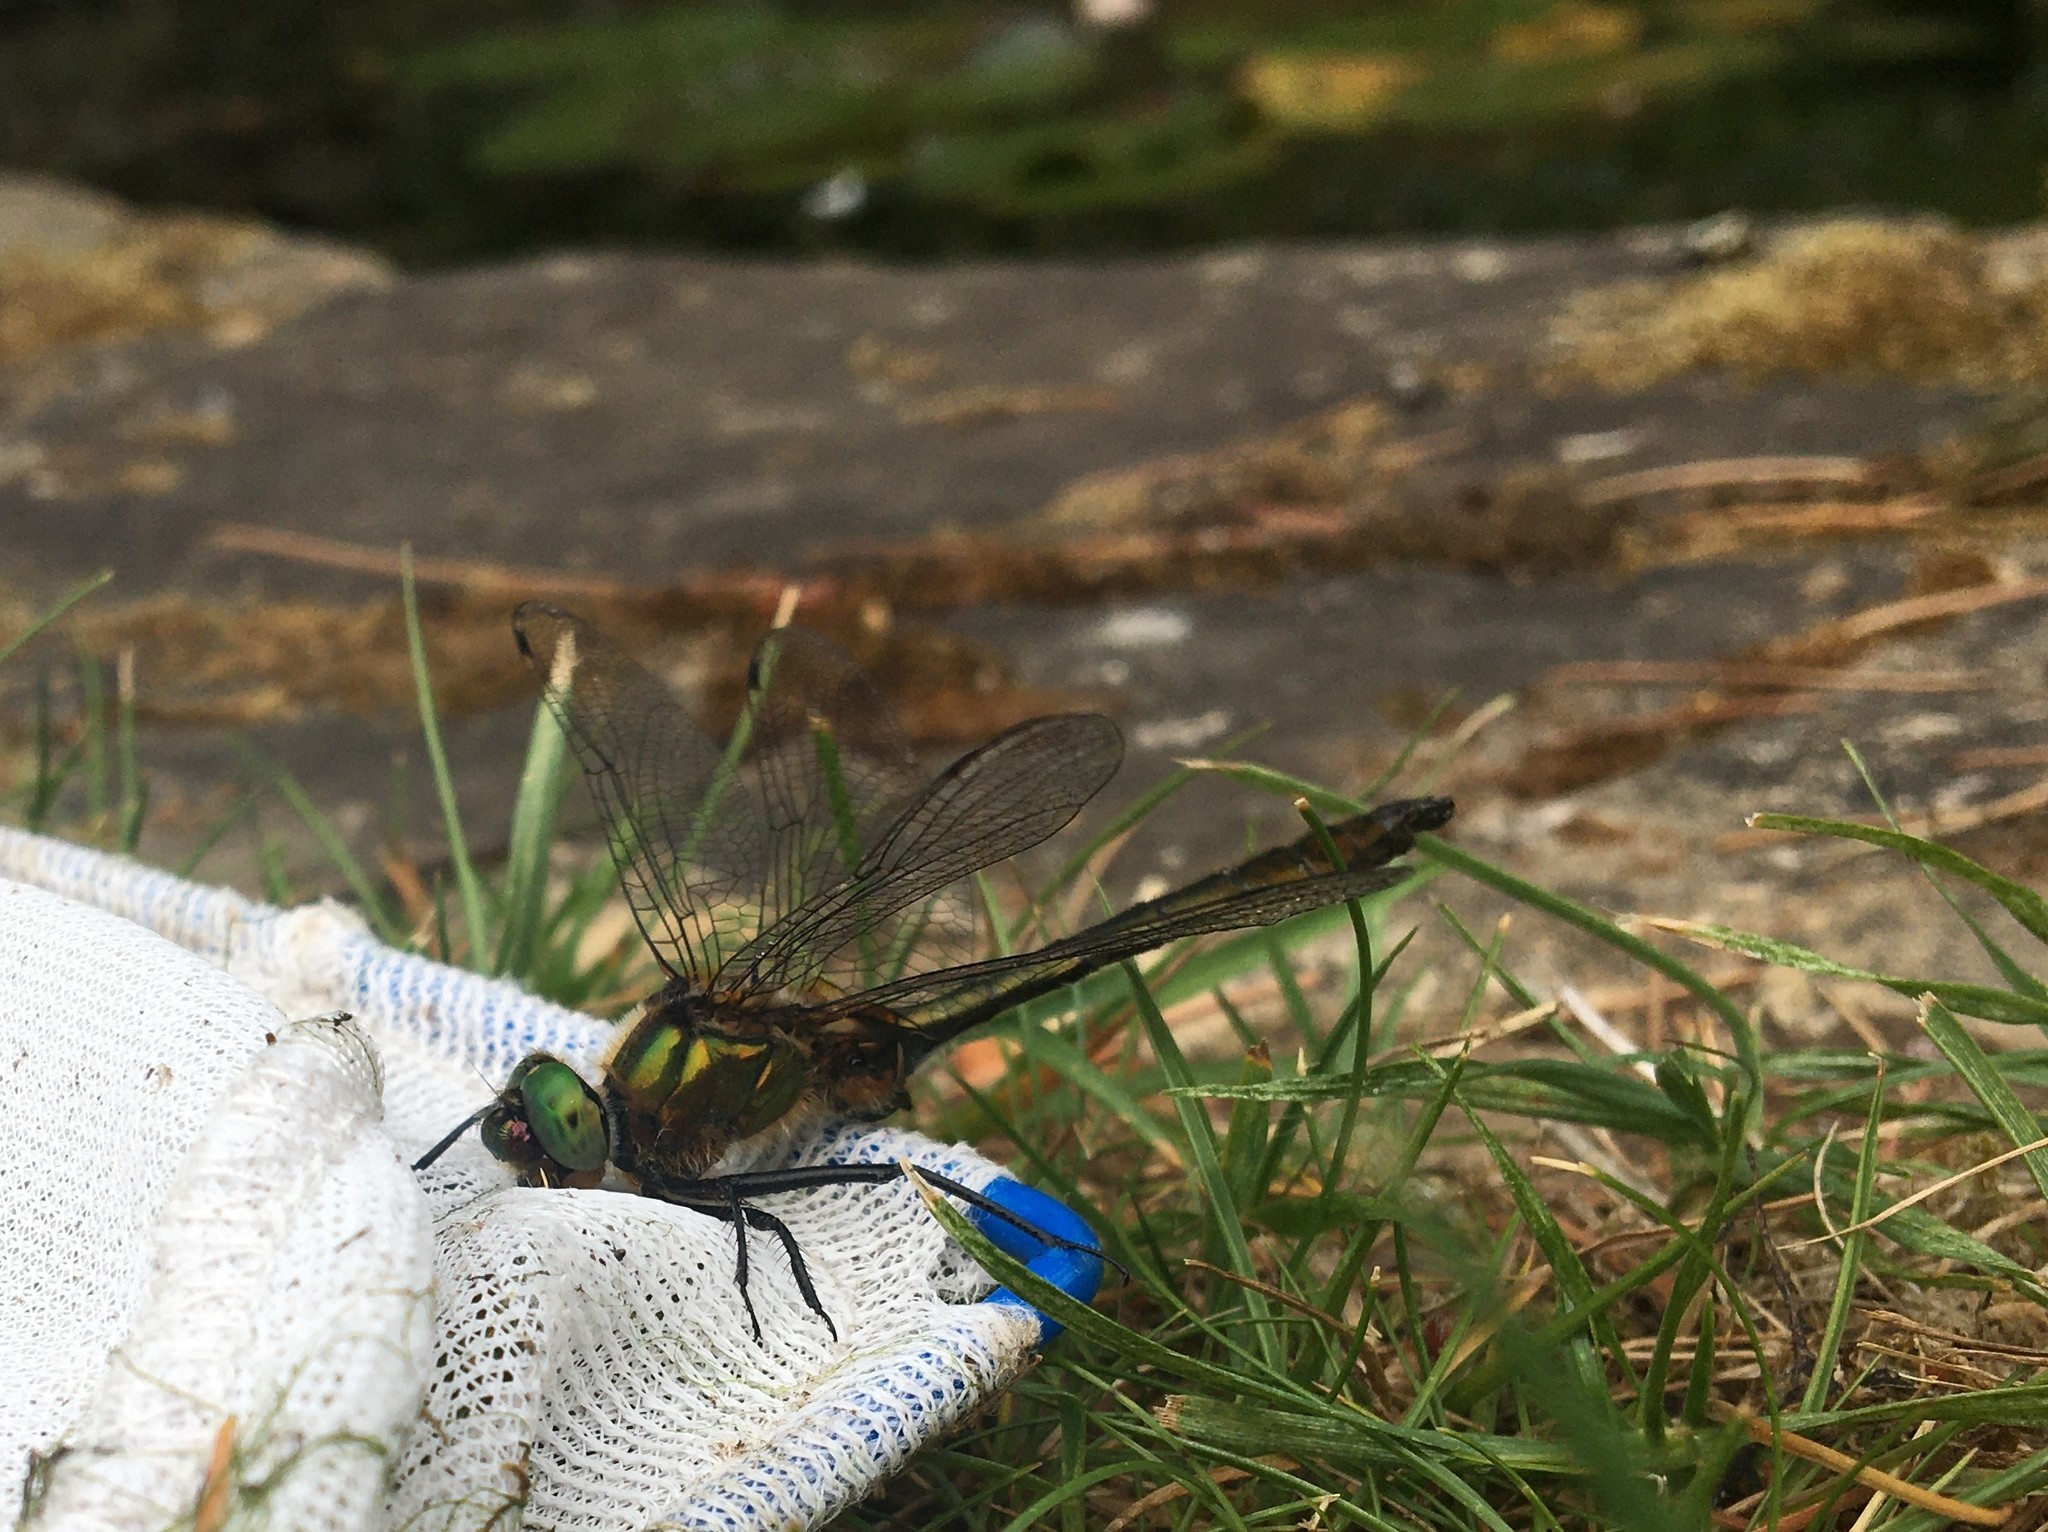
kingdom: Animalia
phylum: Arthropoda
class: Insecta
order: Odonata
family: Corduliidae
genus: Cordulia
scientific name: Cordulia aenea
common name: Downy emerald
